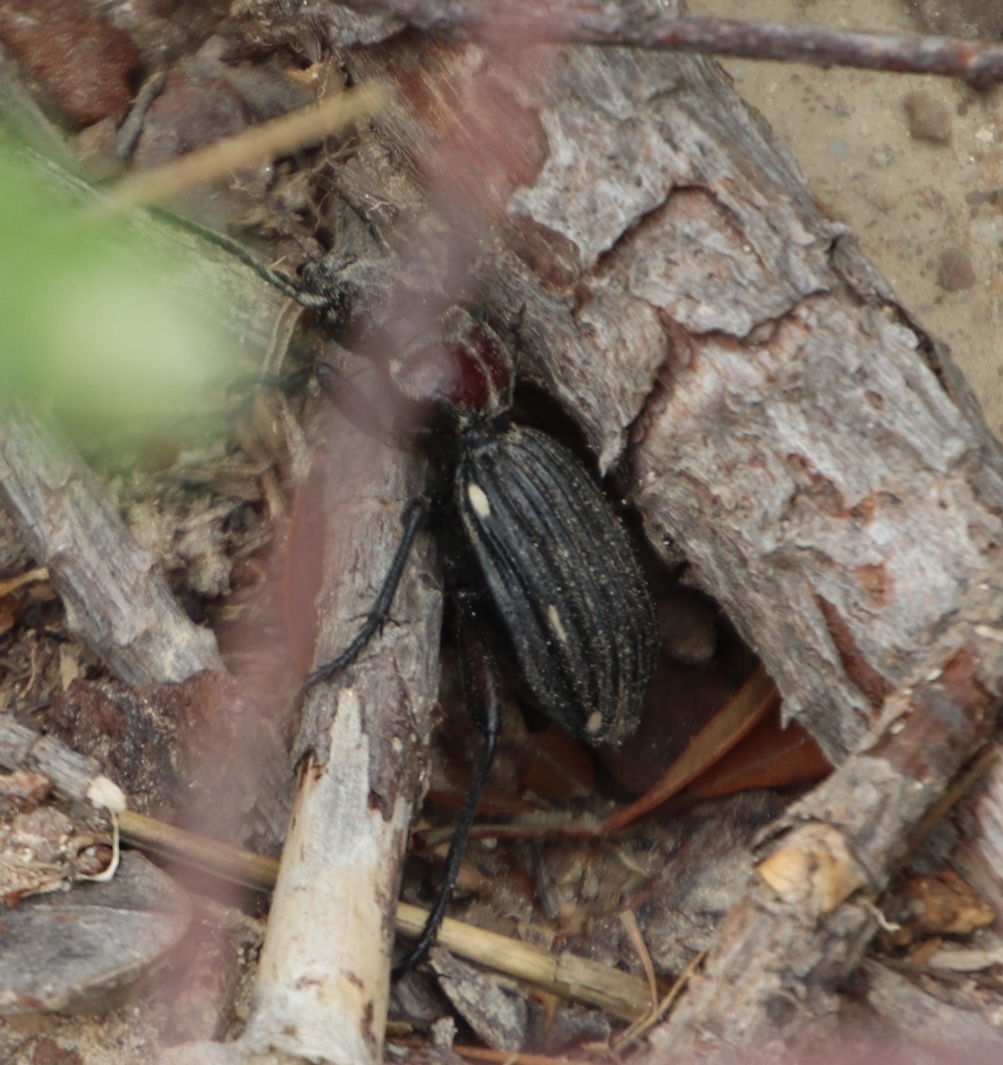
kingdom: Animalia
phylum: Arthropoda
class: Insecta
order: Coleoptera
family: Carabidae
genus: Anthia
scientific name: Anthia decemguttata
